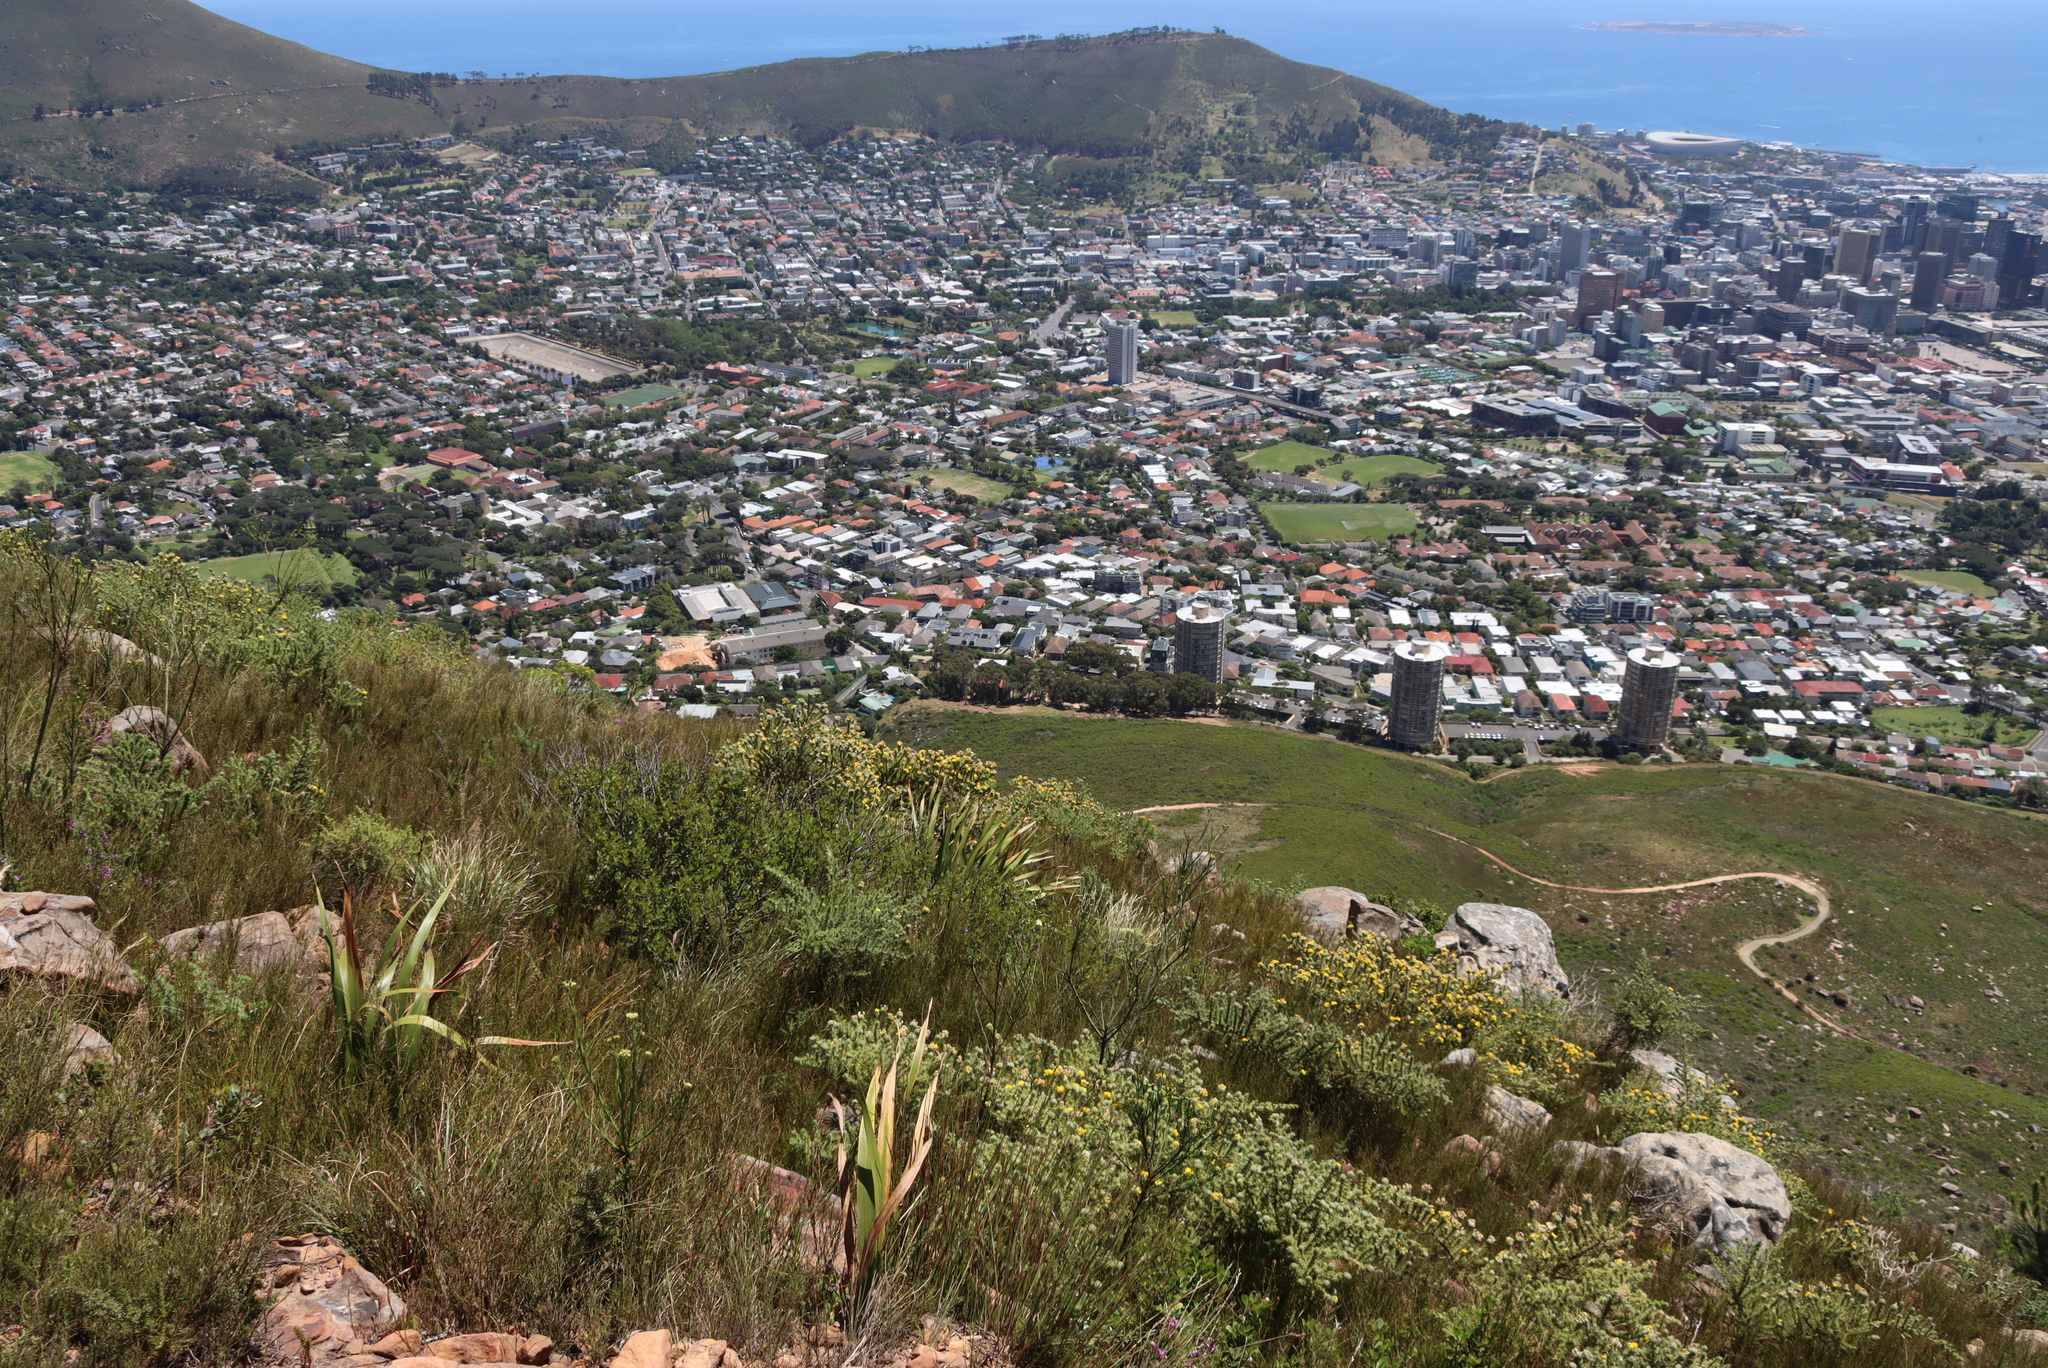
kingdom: Plantae
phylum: Tracheophyta
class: Magnoliopsida
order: Fabales
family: Fabaceae
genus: Aspalathus
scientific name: Aspalathus chenopoda
